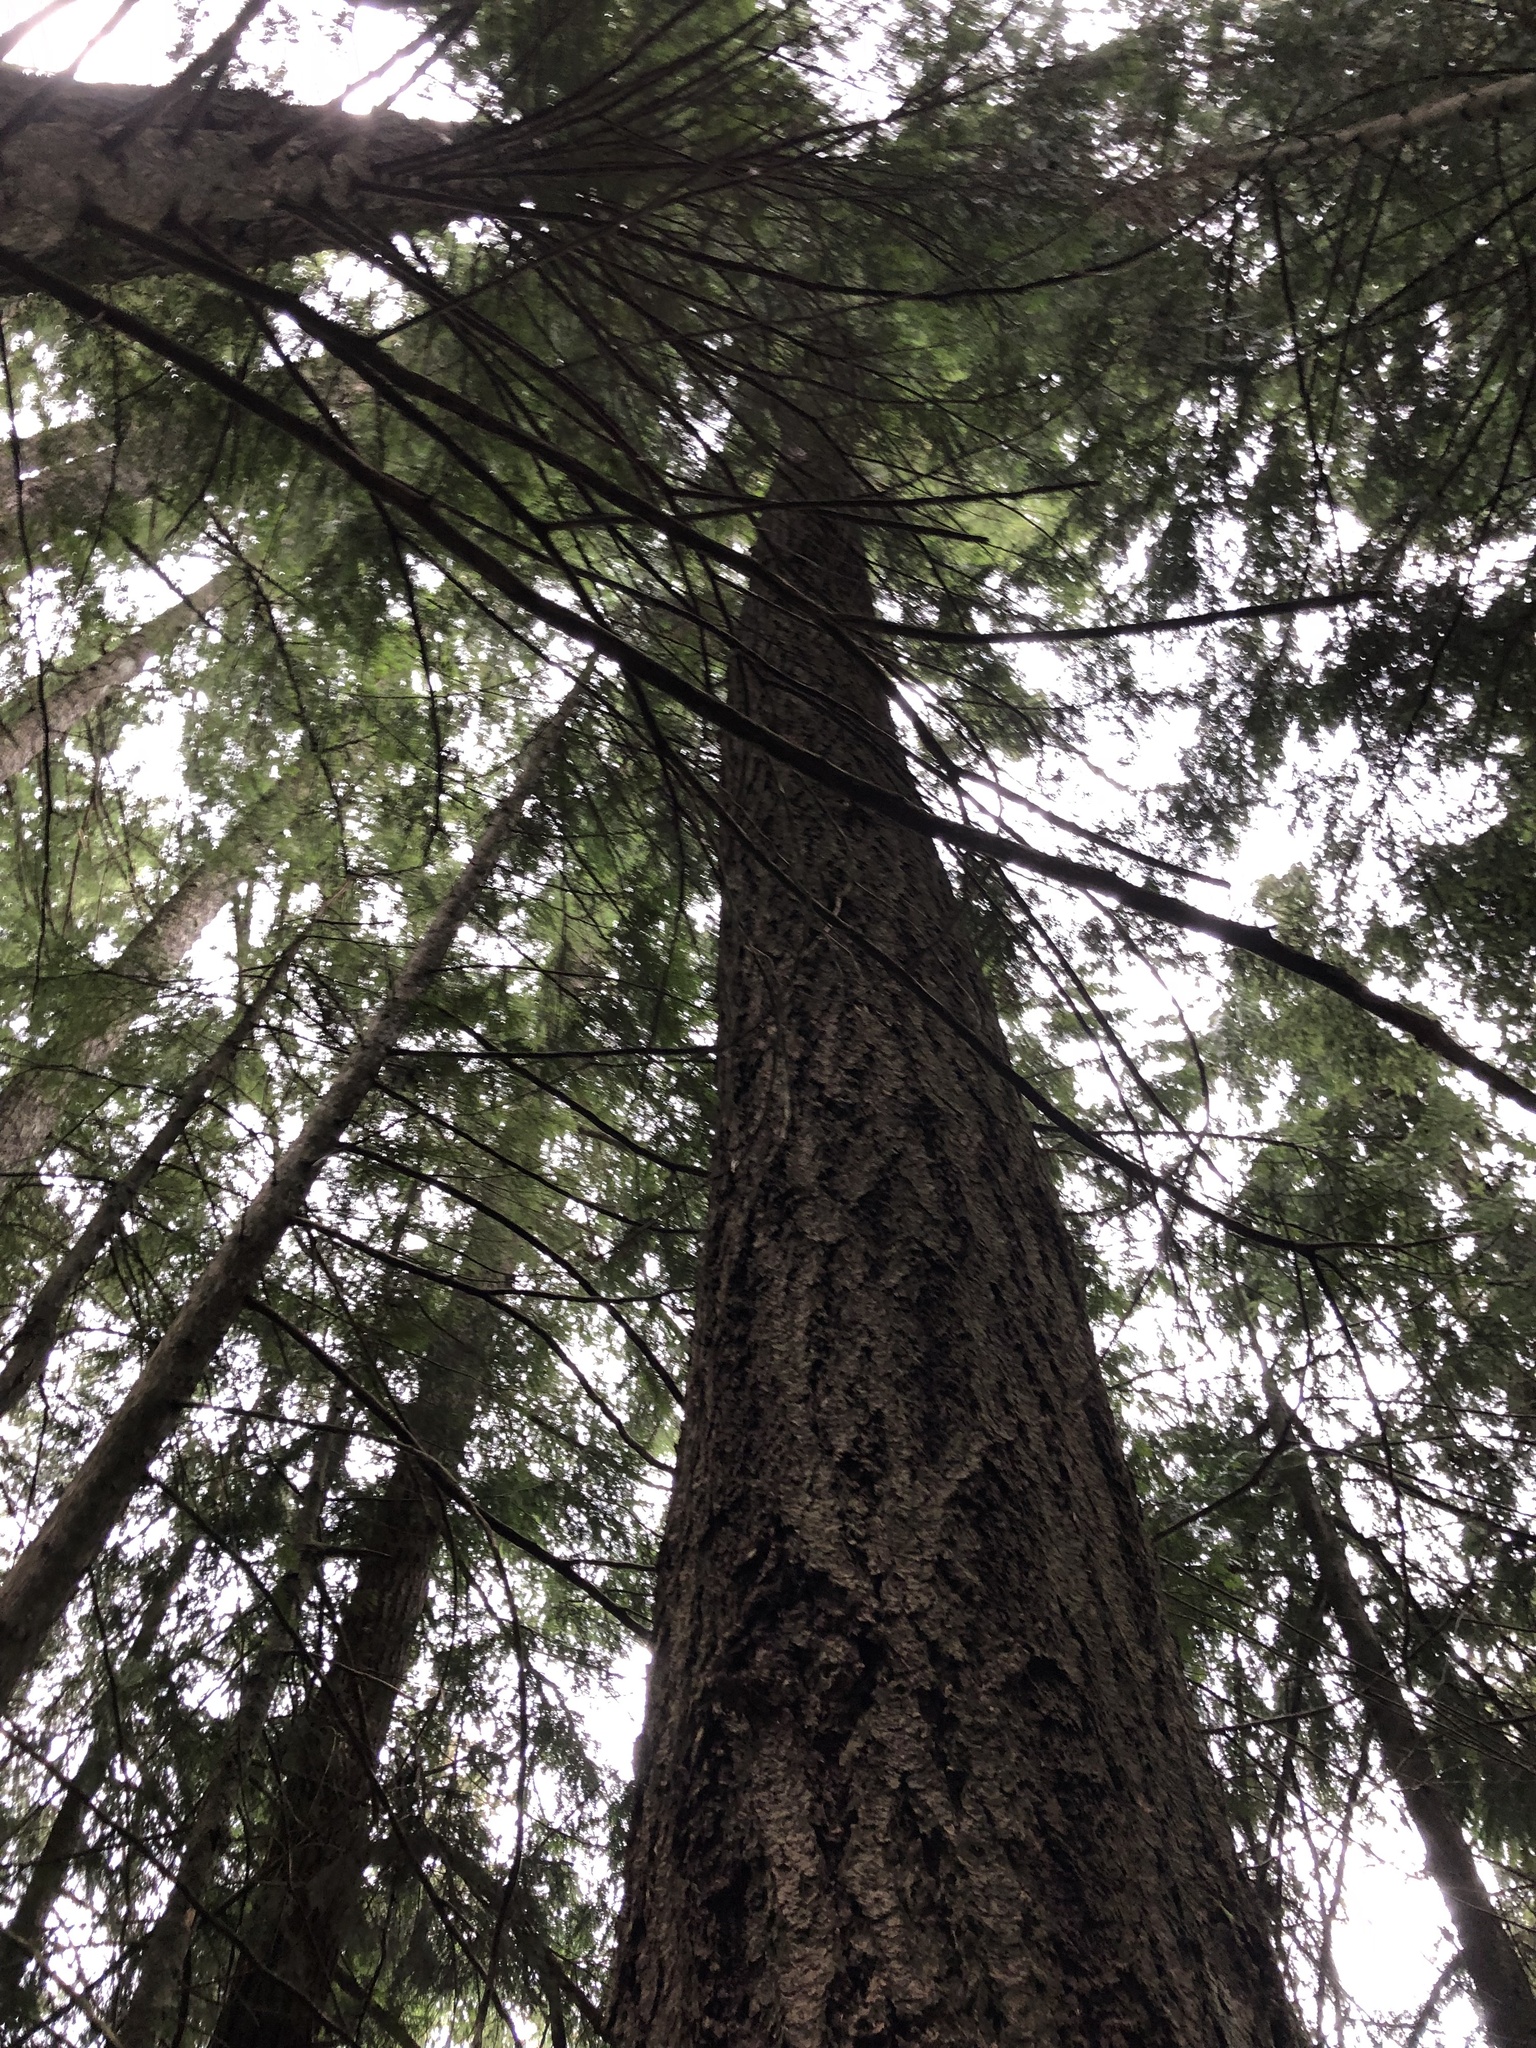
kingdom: Plantae
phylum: Tracheophyta
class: Pinopsida
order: Pinales
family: Pinaceae
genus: Pseudotsuga
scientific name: Pseudotsuga menziesii
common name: Douglas fir
